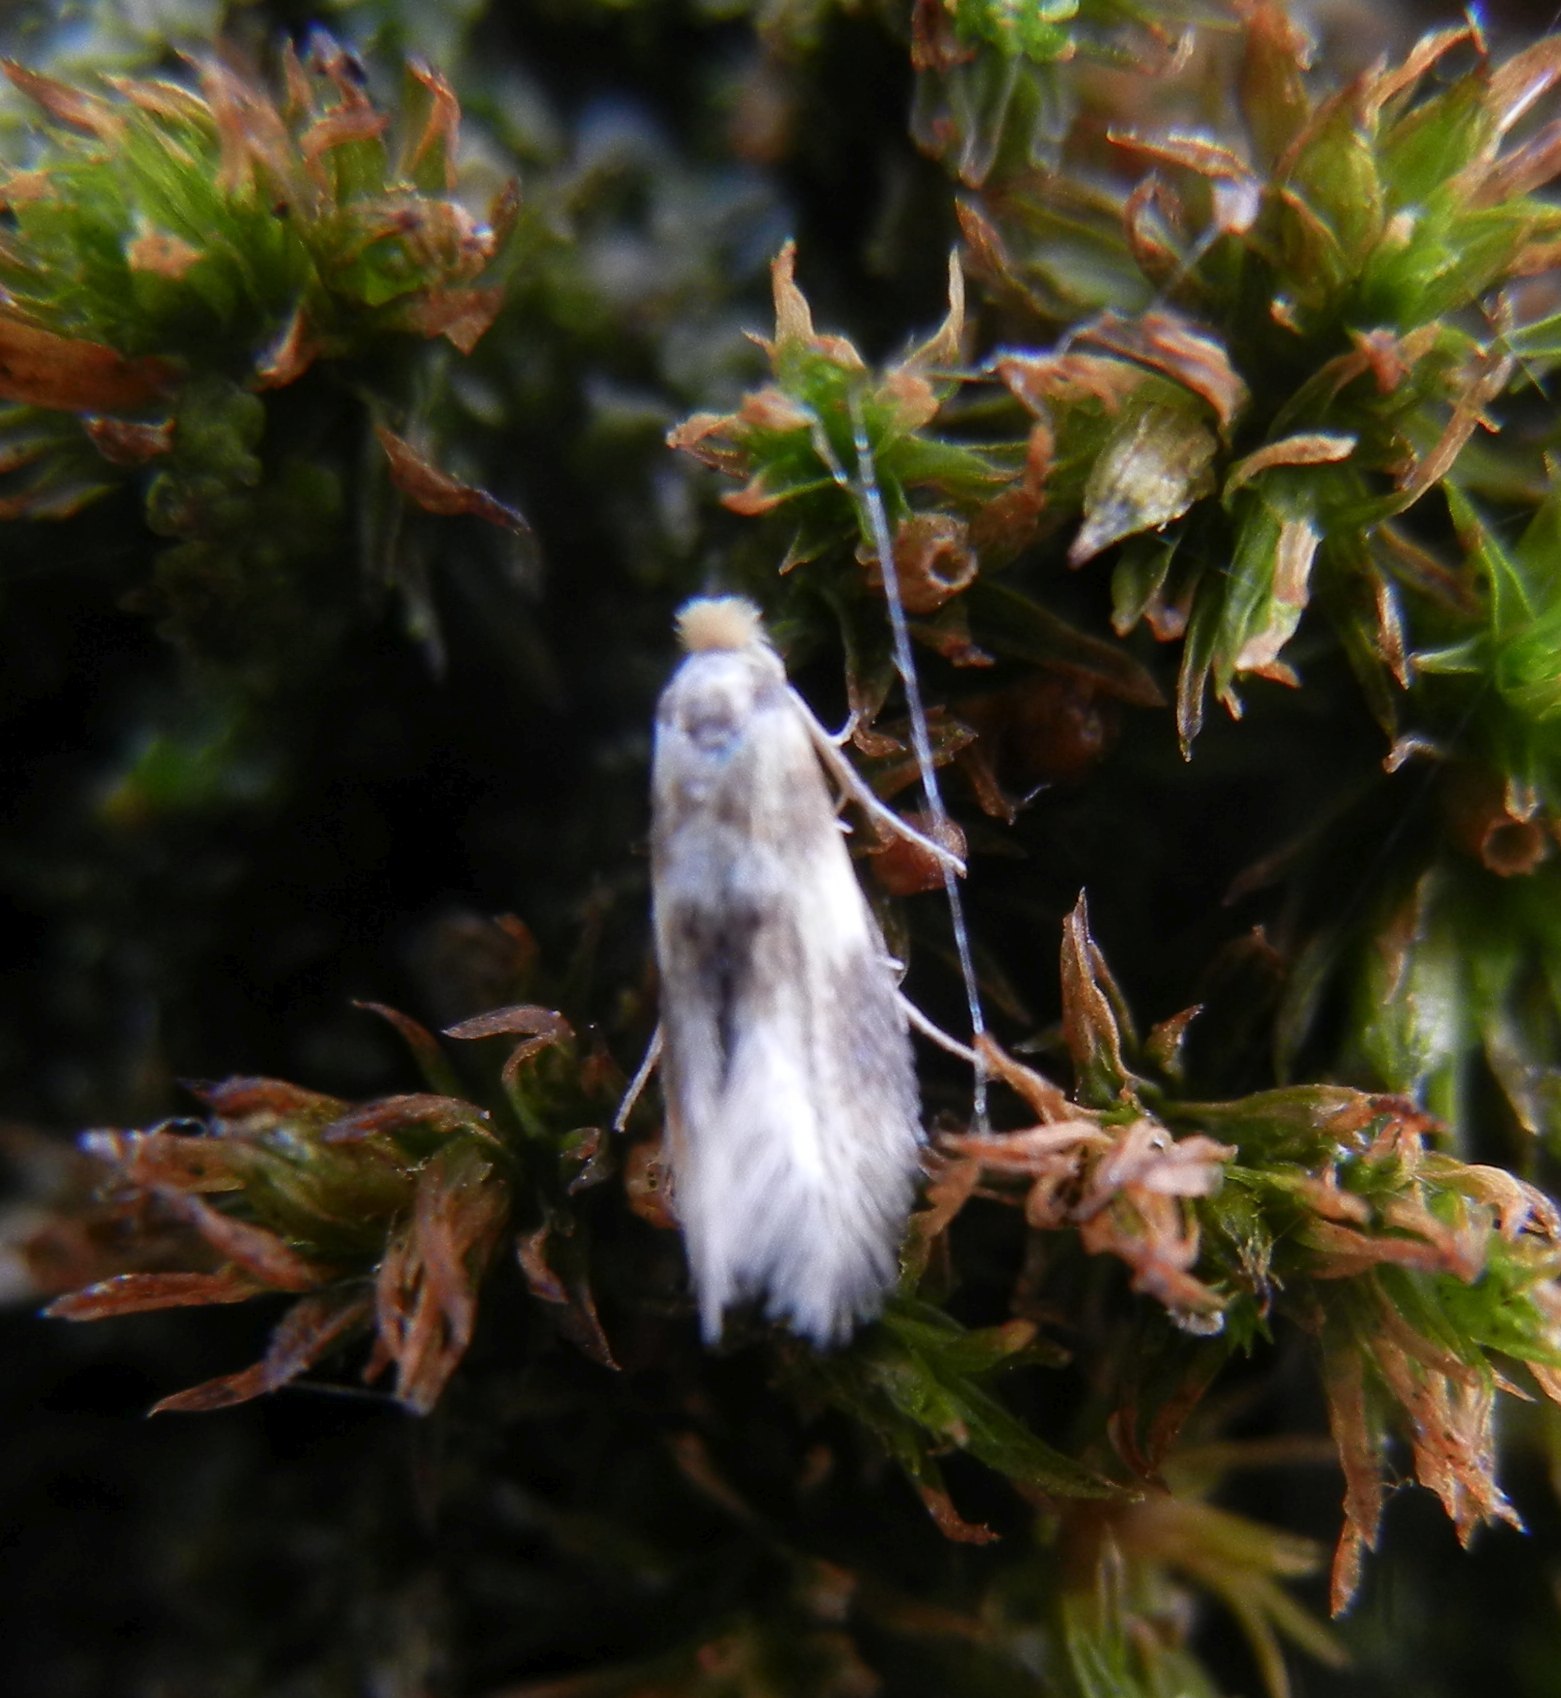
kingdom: Animalia
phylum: Arthropoda
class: Insecta
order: Lepidoptera
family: Bucculatricidae
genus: Bucculatrix
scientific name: Bucculatrix thoracella
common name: Lime bent-wing
